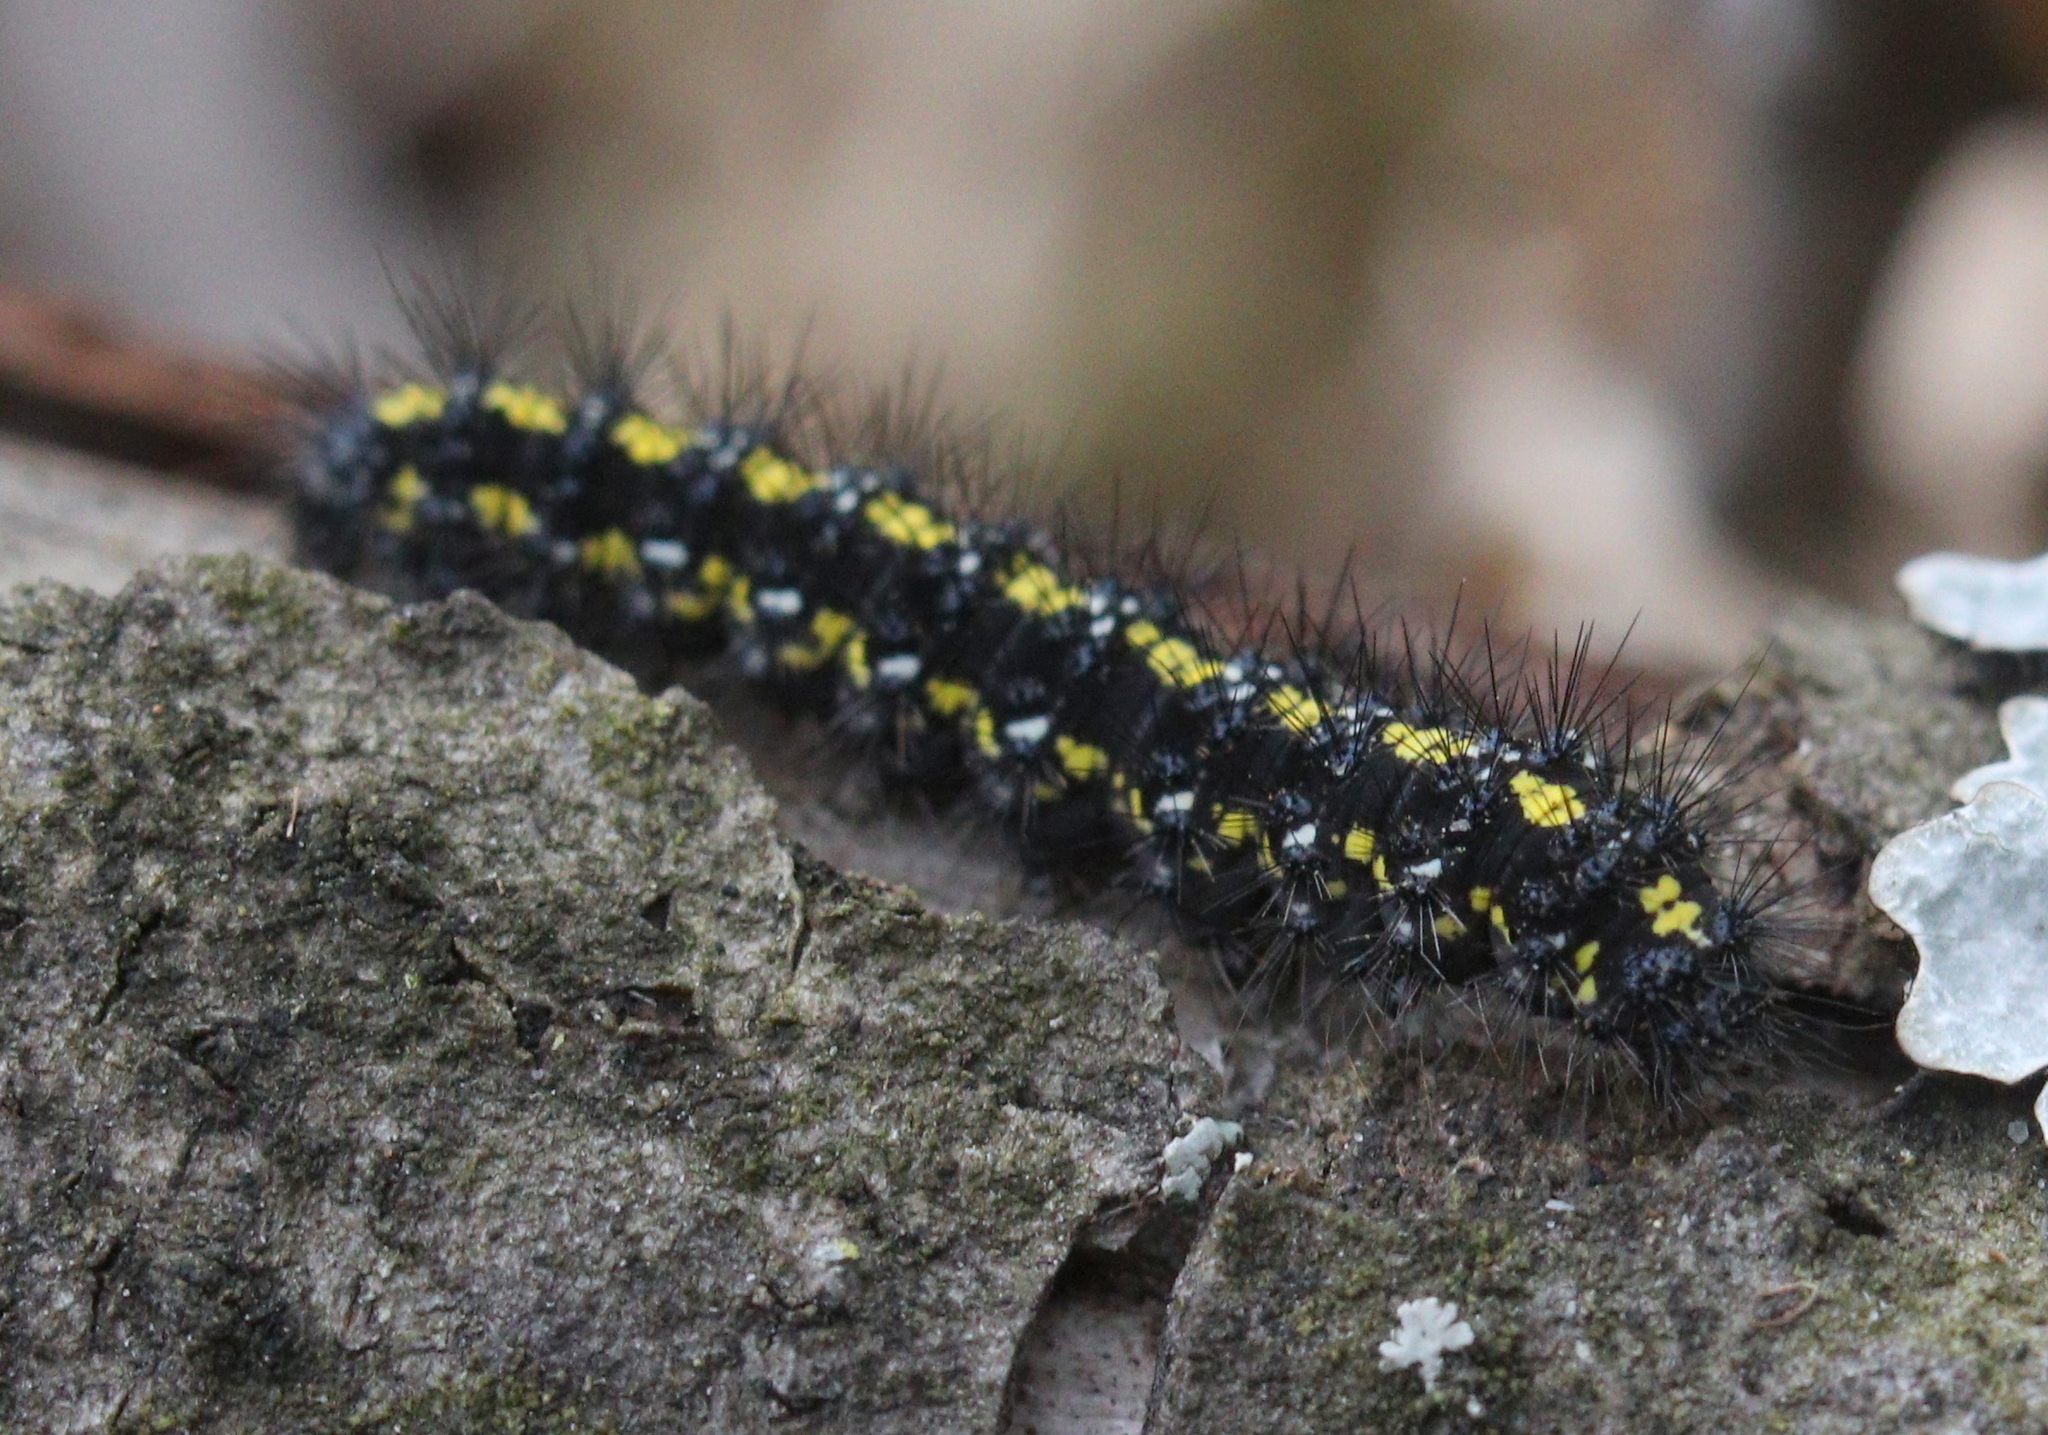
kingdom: Animalia
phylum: Arthropoda
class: Insecta
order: Lepidoptera
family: Erebidae
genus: Callimorpha
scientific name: Callimorpha dominula
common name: Scarlet tiger
